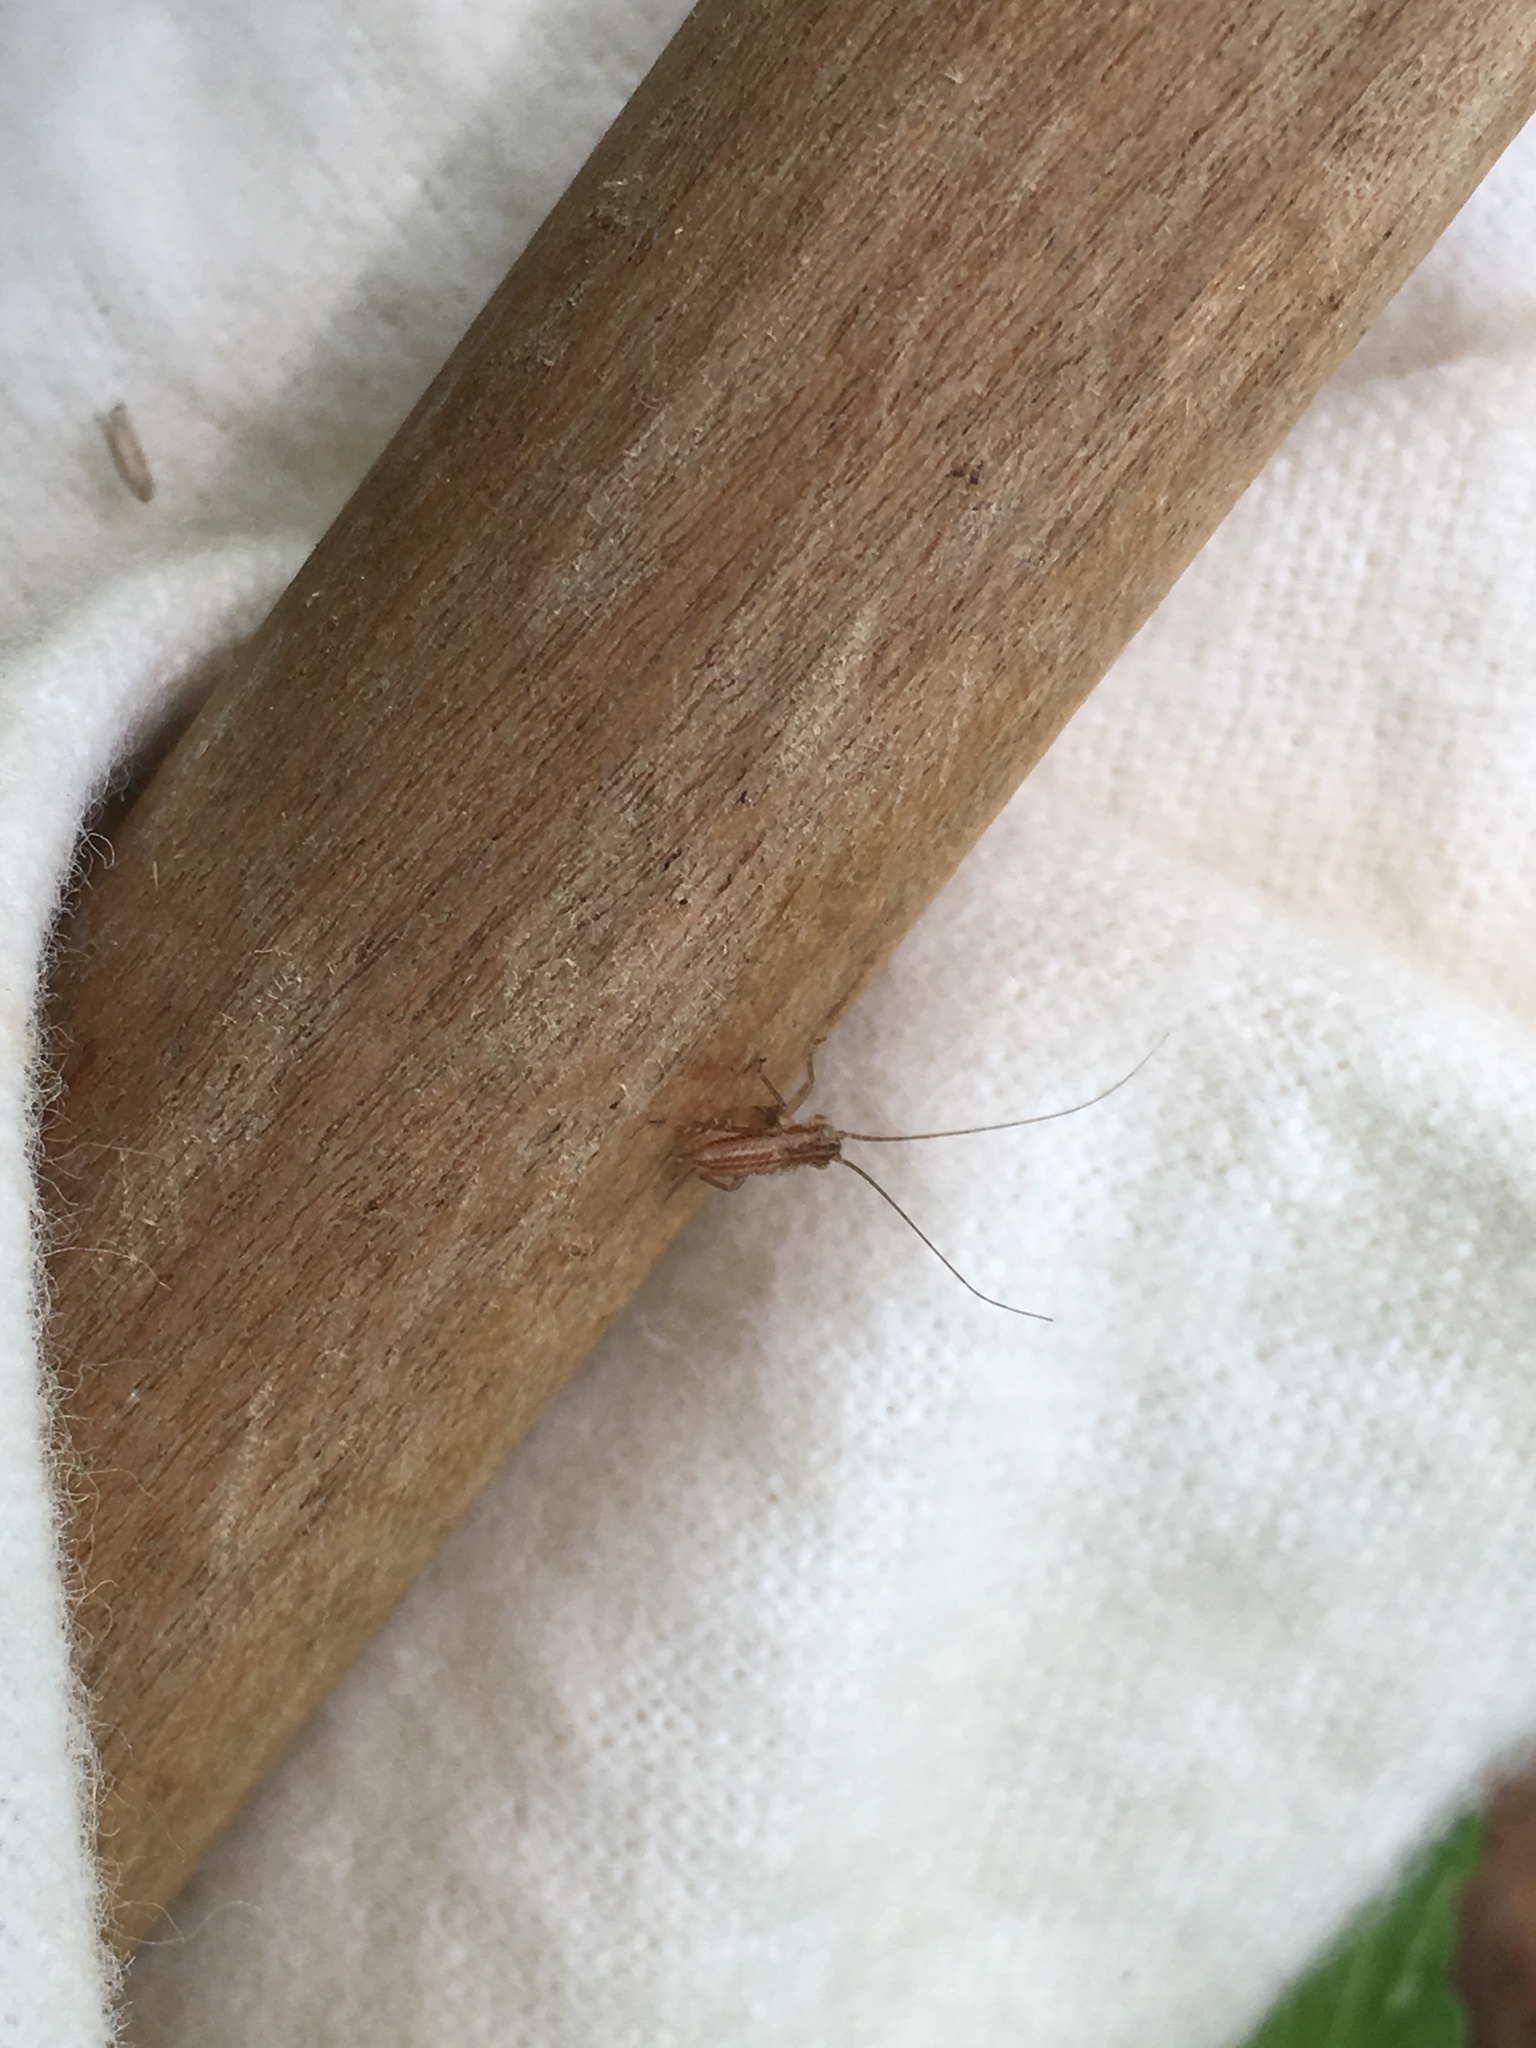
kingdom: Animalia
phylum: Arthropoda
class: Insecta
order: Orthoptera
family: Trigonidiidae
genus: Falcicula
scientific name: Falcicula hebardi
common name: Hebard's bush cricket
